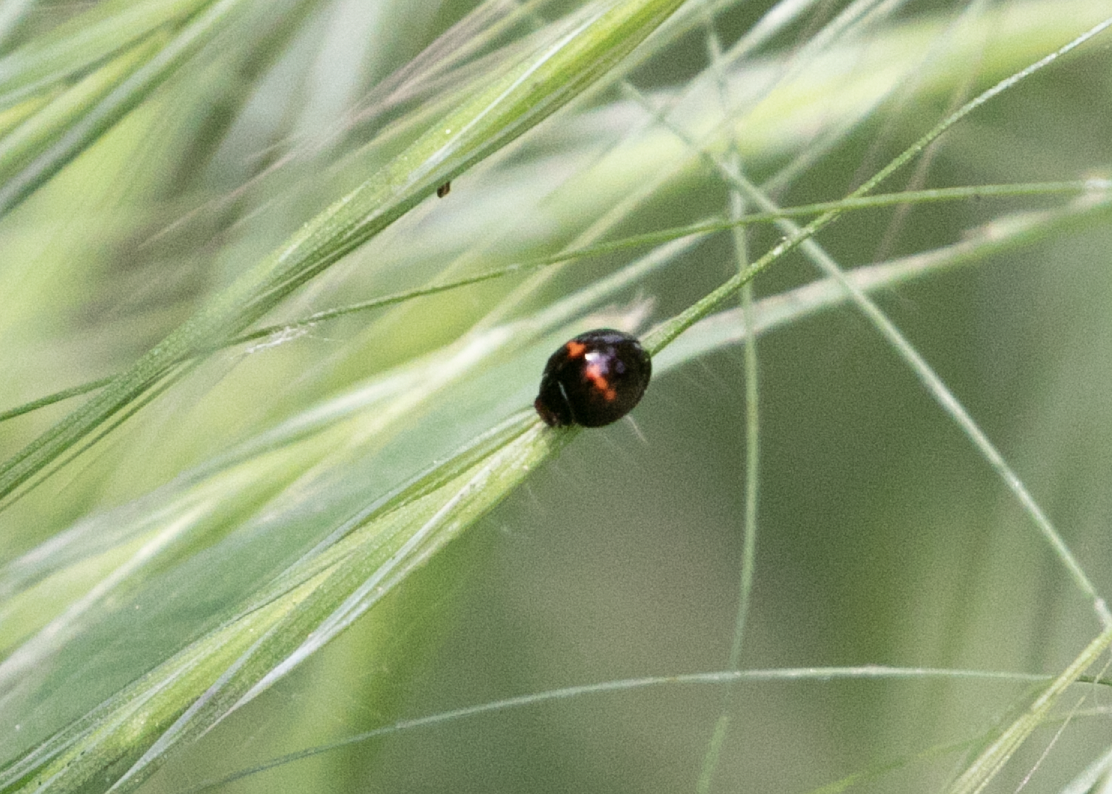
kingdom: Animalia
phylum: Arthropoda
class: Insecta
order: Coleoptera
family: Coccinellidae
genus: Chilocorus
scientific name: Chilocorus bipustulatus
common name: Heather ladybird
